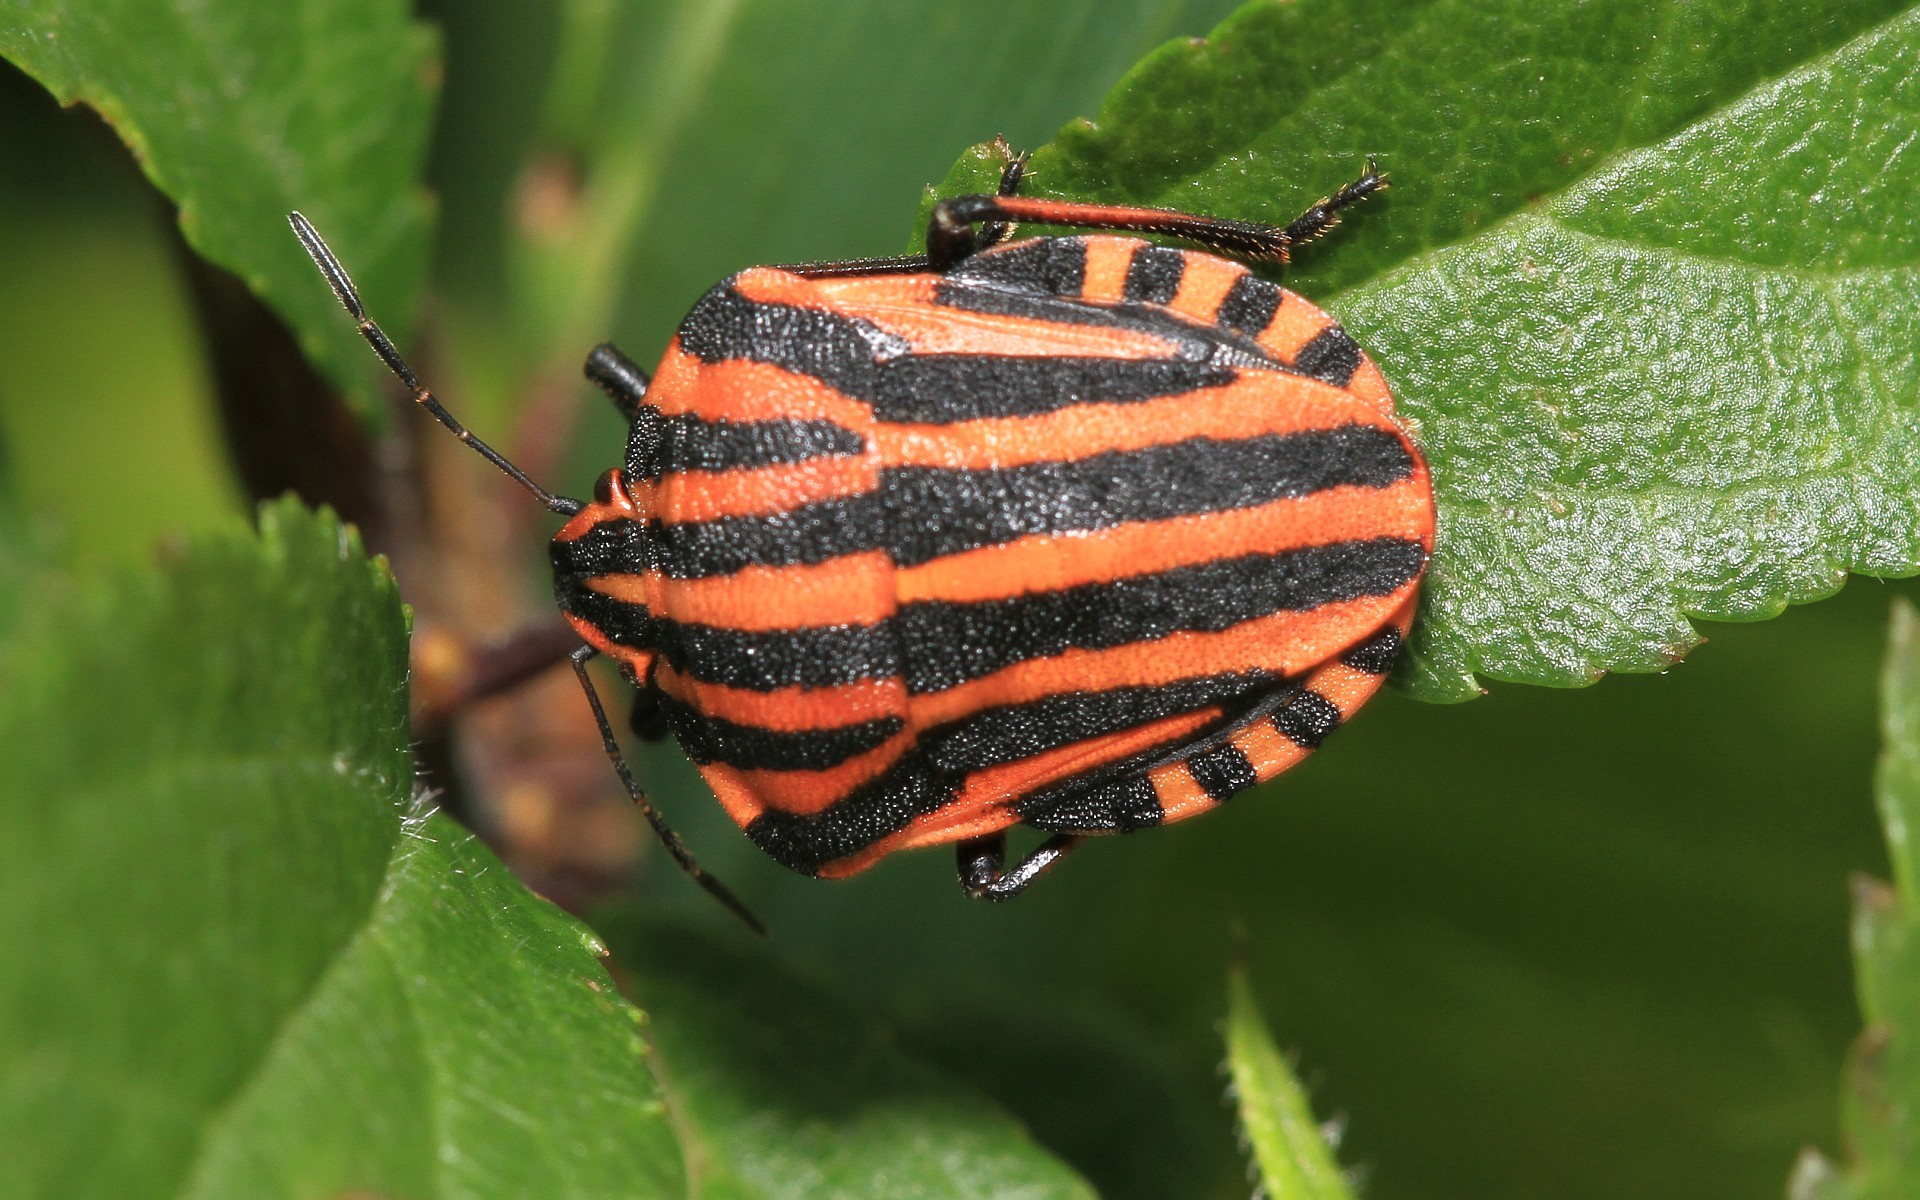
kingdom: Animalia
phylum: Arthropoda
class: Insecta
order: Hemiptera
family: Pentatomidae
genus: Graphosoma
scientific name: Graphosoma italicum
